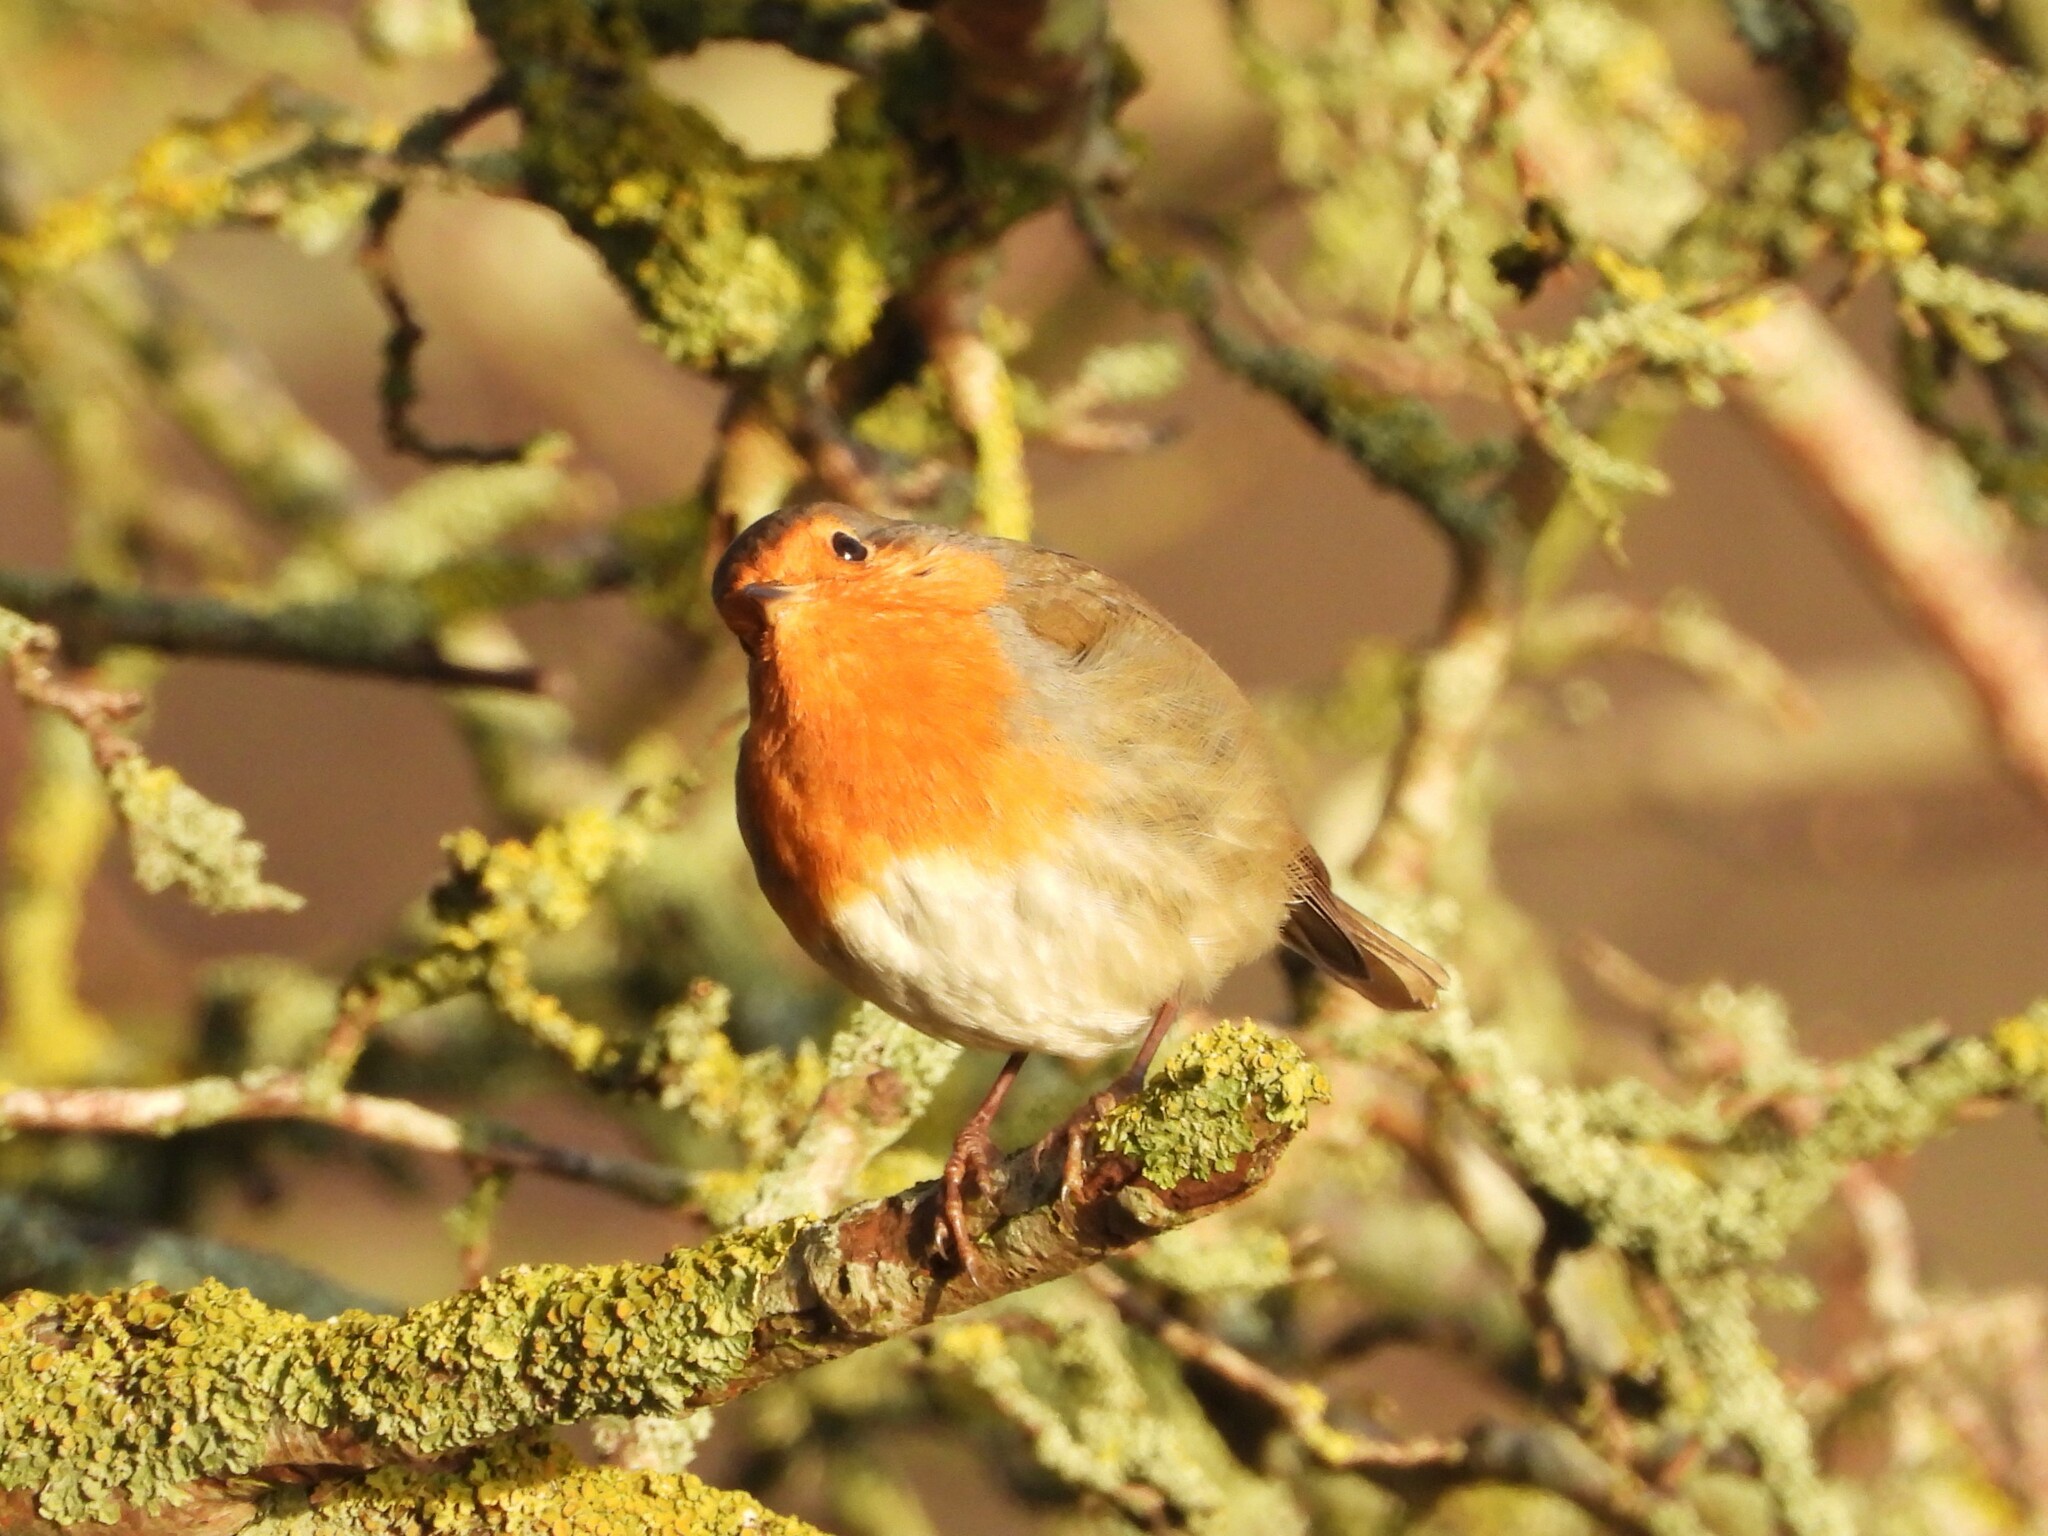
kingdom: Animalia
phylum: Chordata
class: Aves
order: Passeriformes
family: Muscicapidae
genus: Erithacus
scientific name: Erithacus rubecula
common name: European robin
